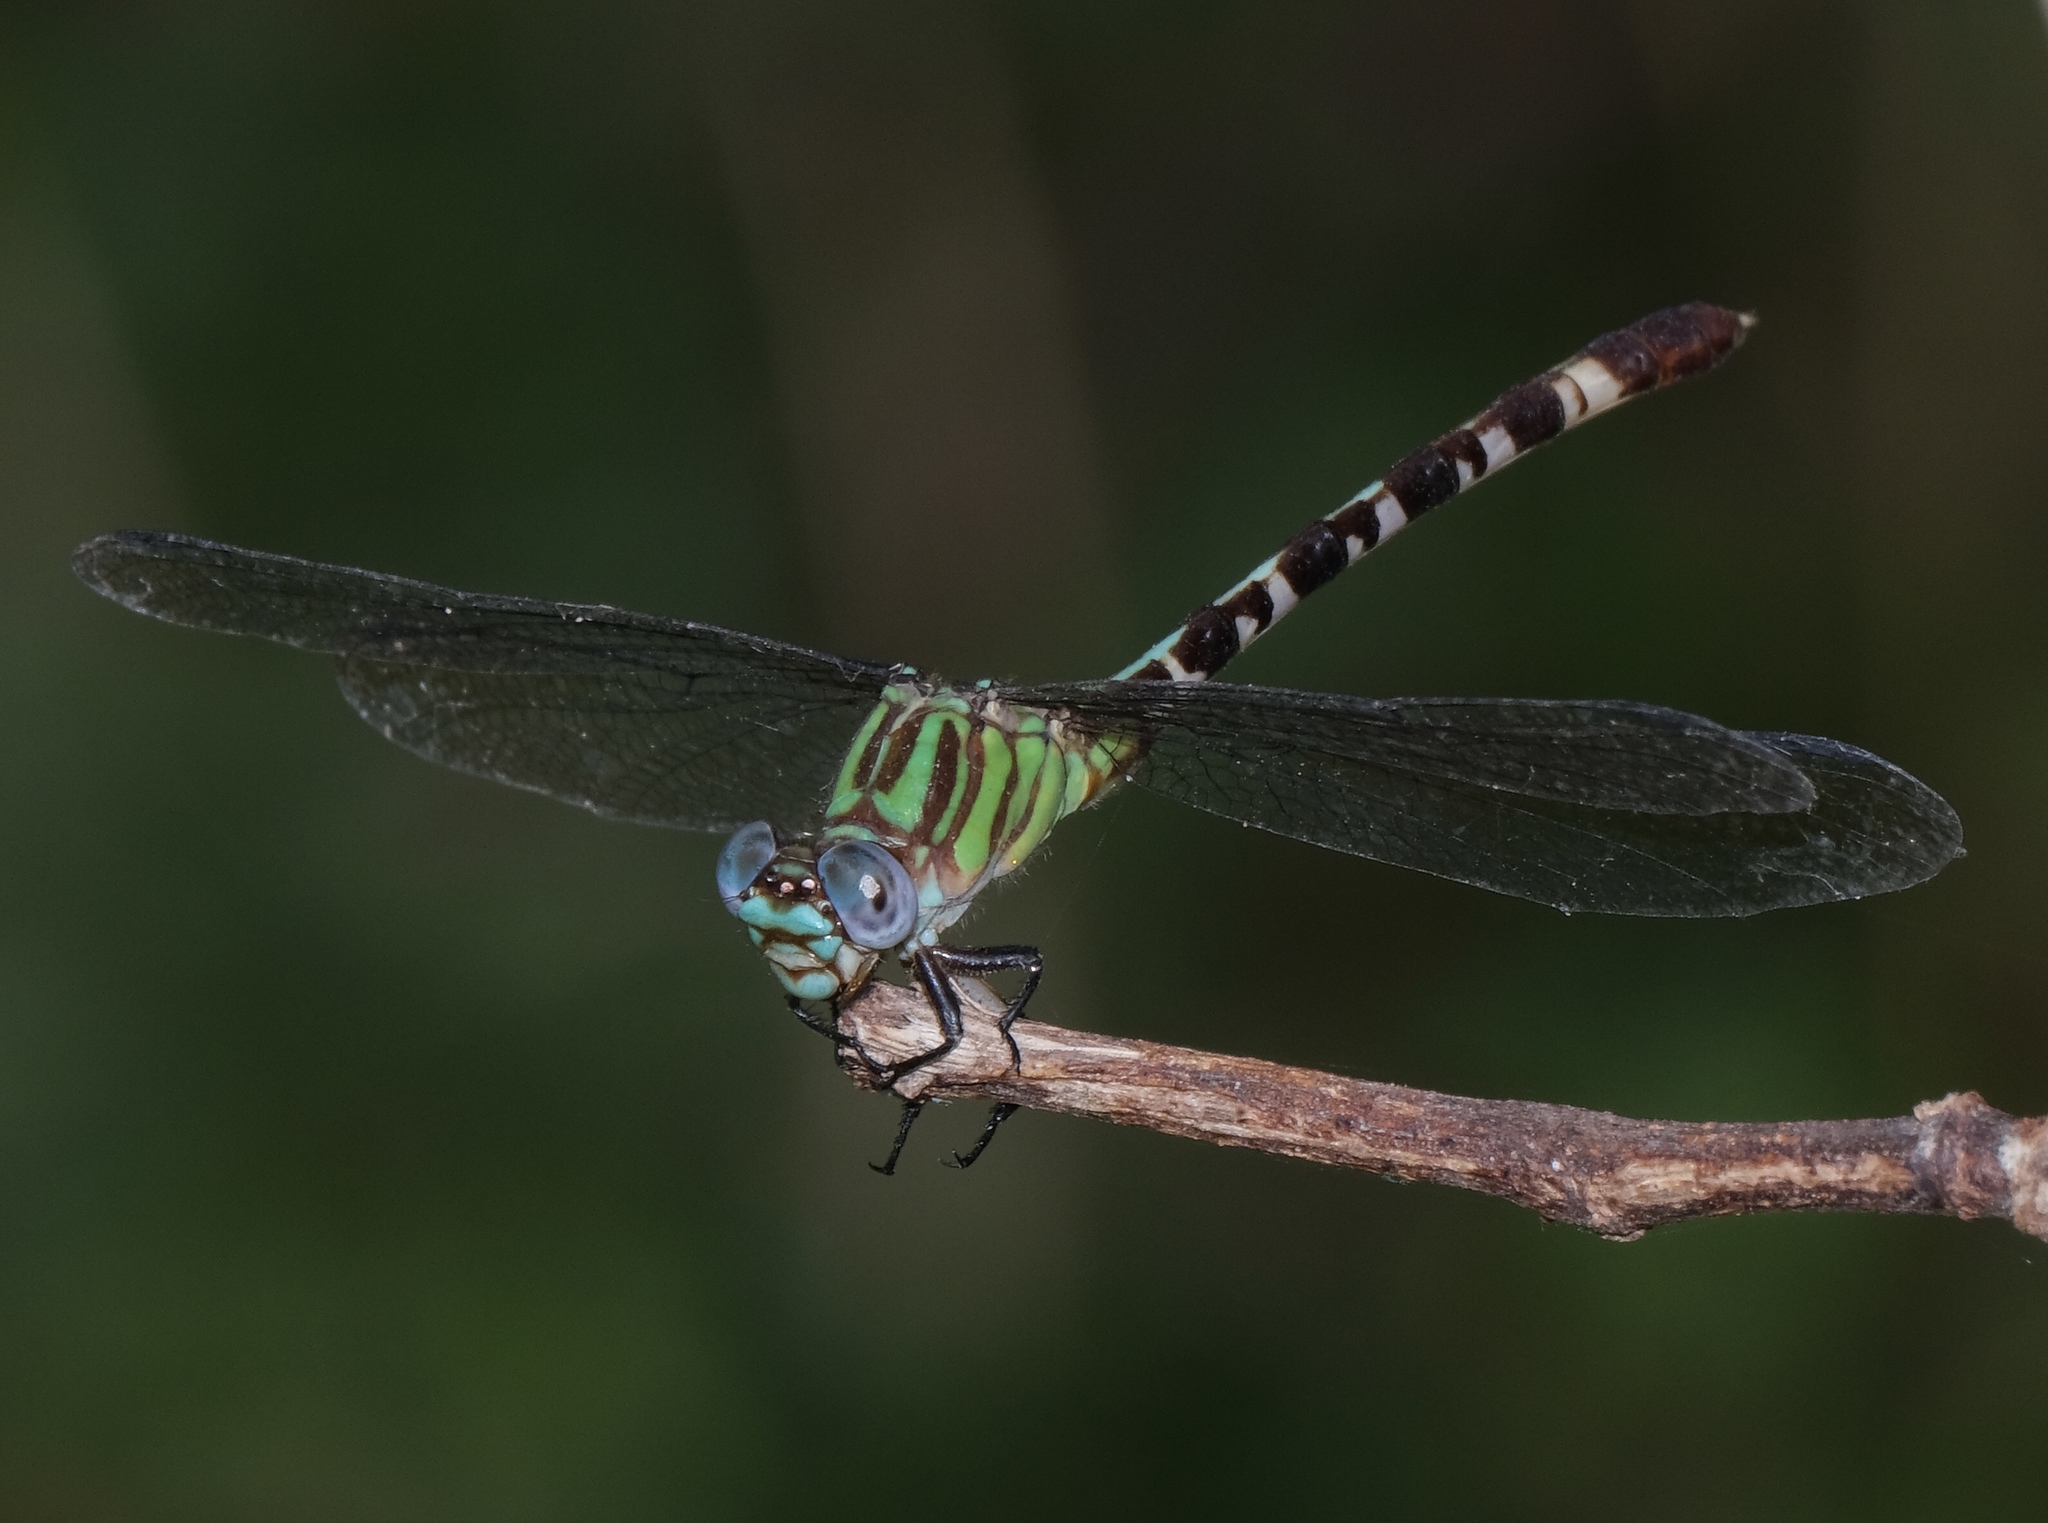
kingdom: Animalia
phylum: Arthropoda
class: Insecta
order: Odonata
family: Gomphidae
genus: Erpetogomphus
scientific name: Erpetogomphus eutainia
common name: Blue-faced ringtail
